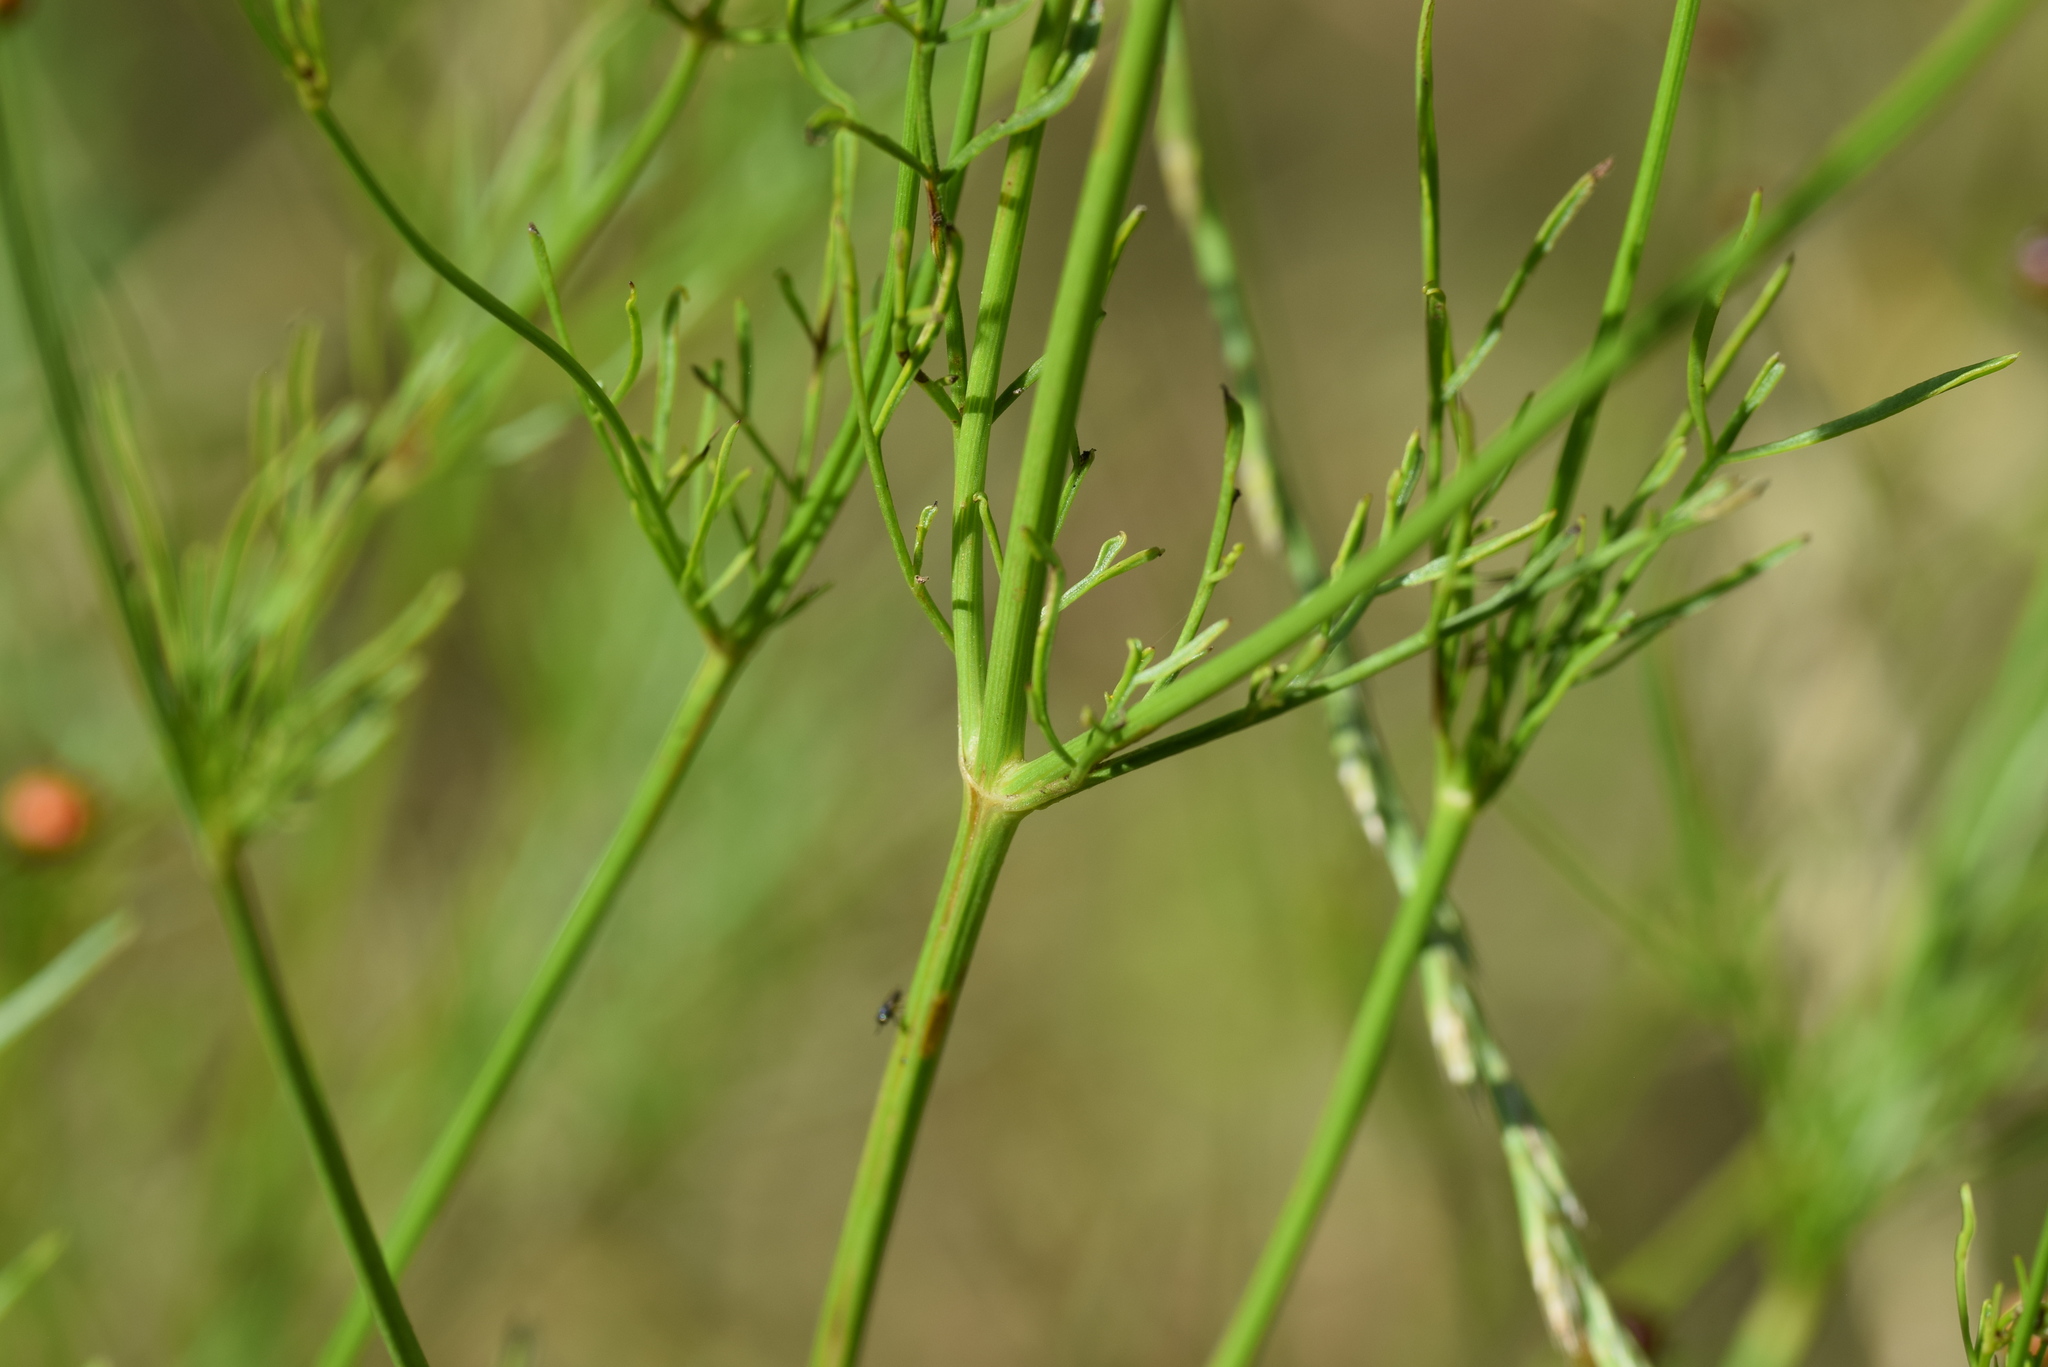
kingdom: Plantae
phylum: Tracheophyta
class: Magnoliopsida
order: Asterales
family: Asteraceae
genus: Coreopsis
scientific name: Coreopsis tinctoria
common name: Garden tickseed
